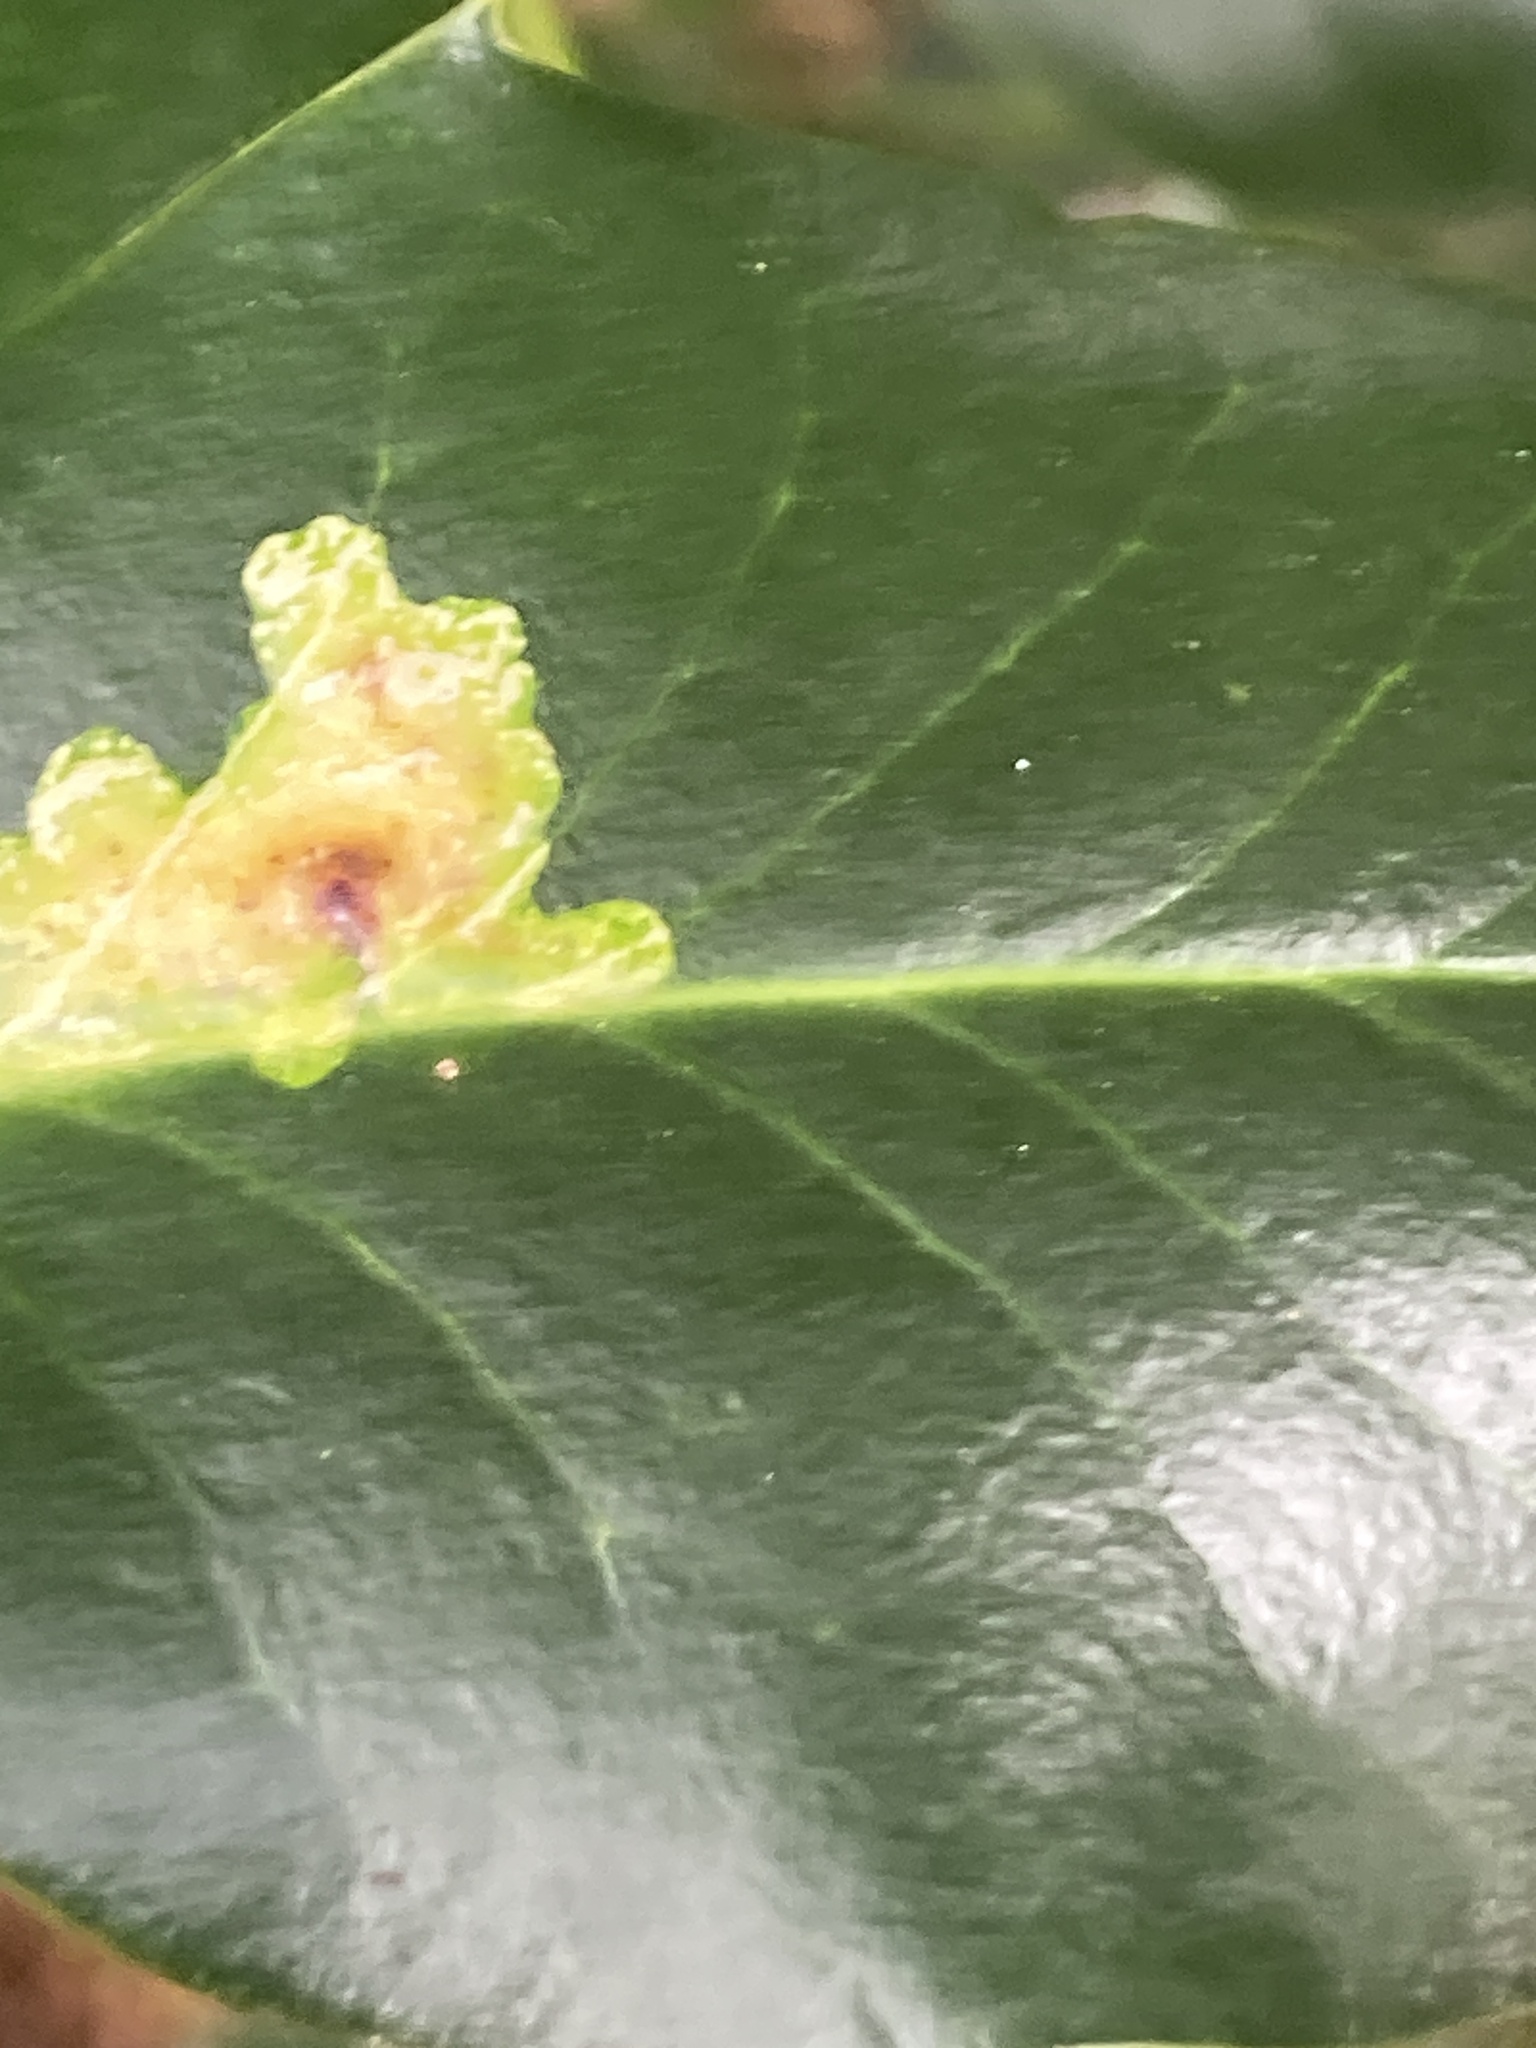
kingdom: Animalia
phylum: Arthropoda
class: Insecta
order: Diptera
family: Agromyzidae
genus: Phytomyza
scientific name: Phytomyza ilicis
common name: Holly leafminer
